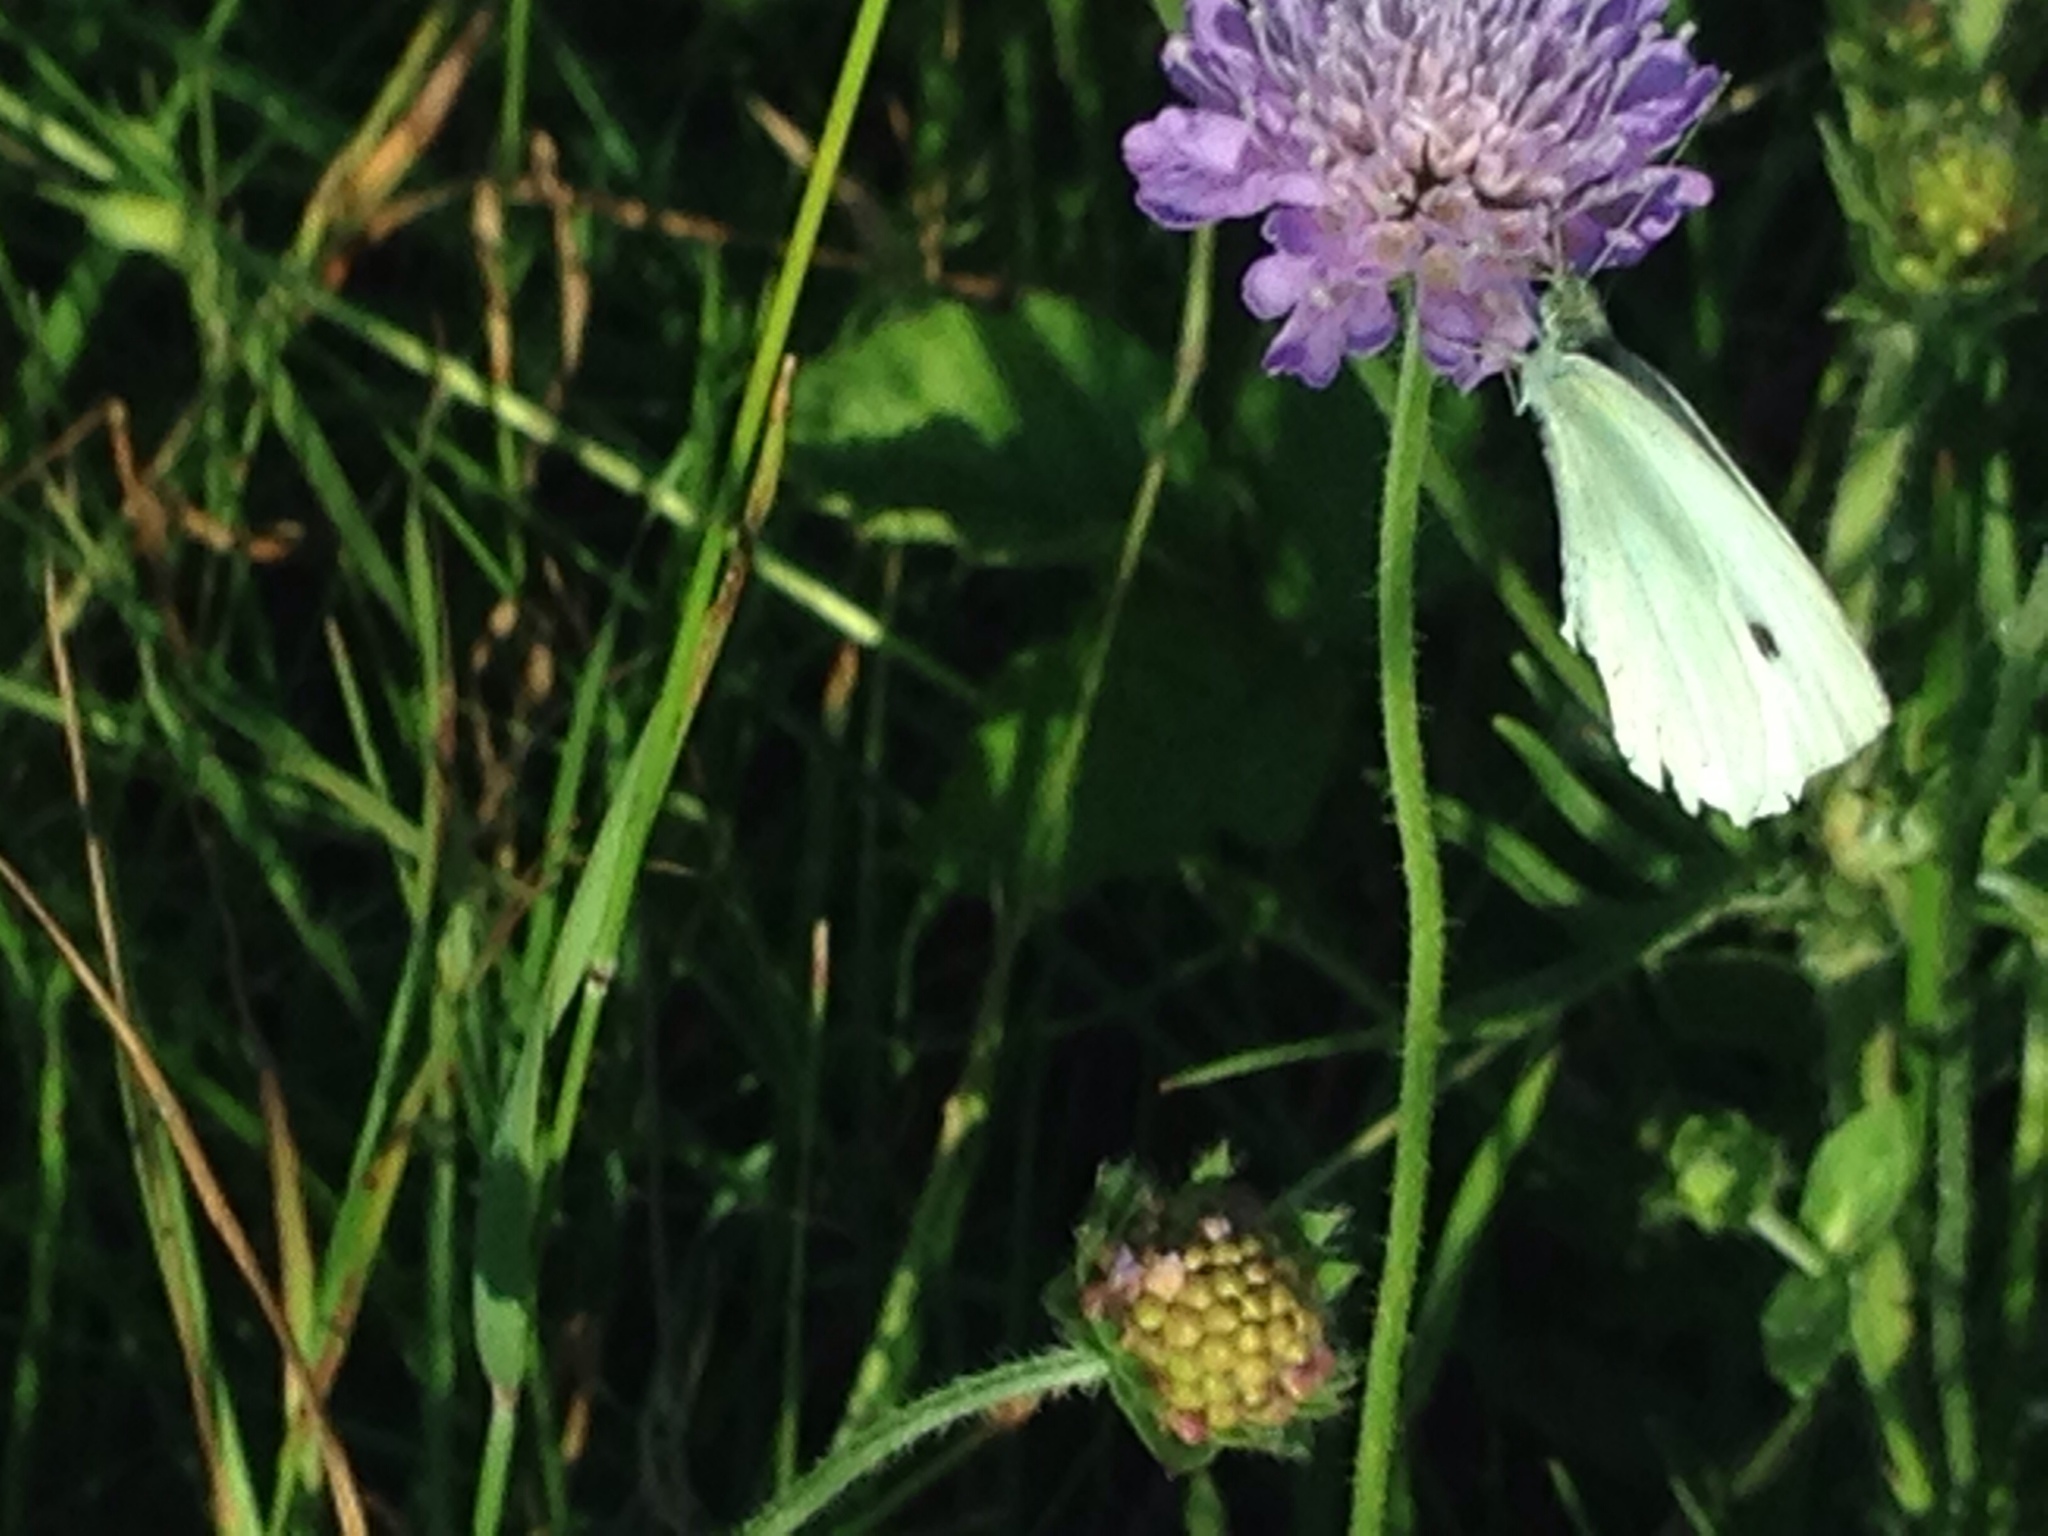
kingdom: Animalia
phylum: Arthropoda
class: Insecta
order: Lepidoptera
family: Pieridae
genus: Pieris
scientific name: Pieris rapae
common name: Small white
